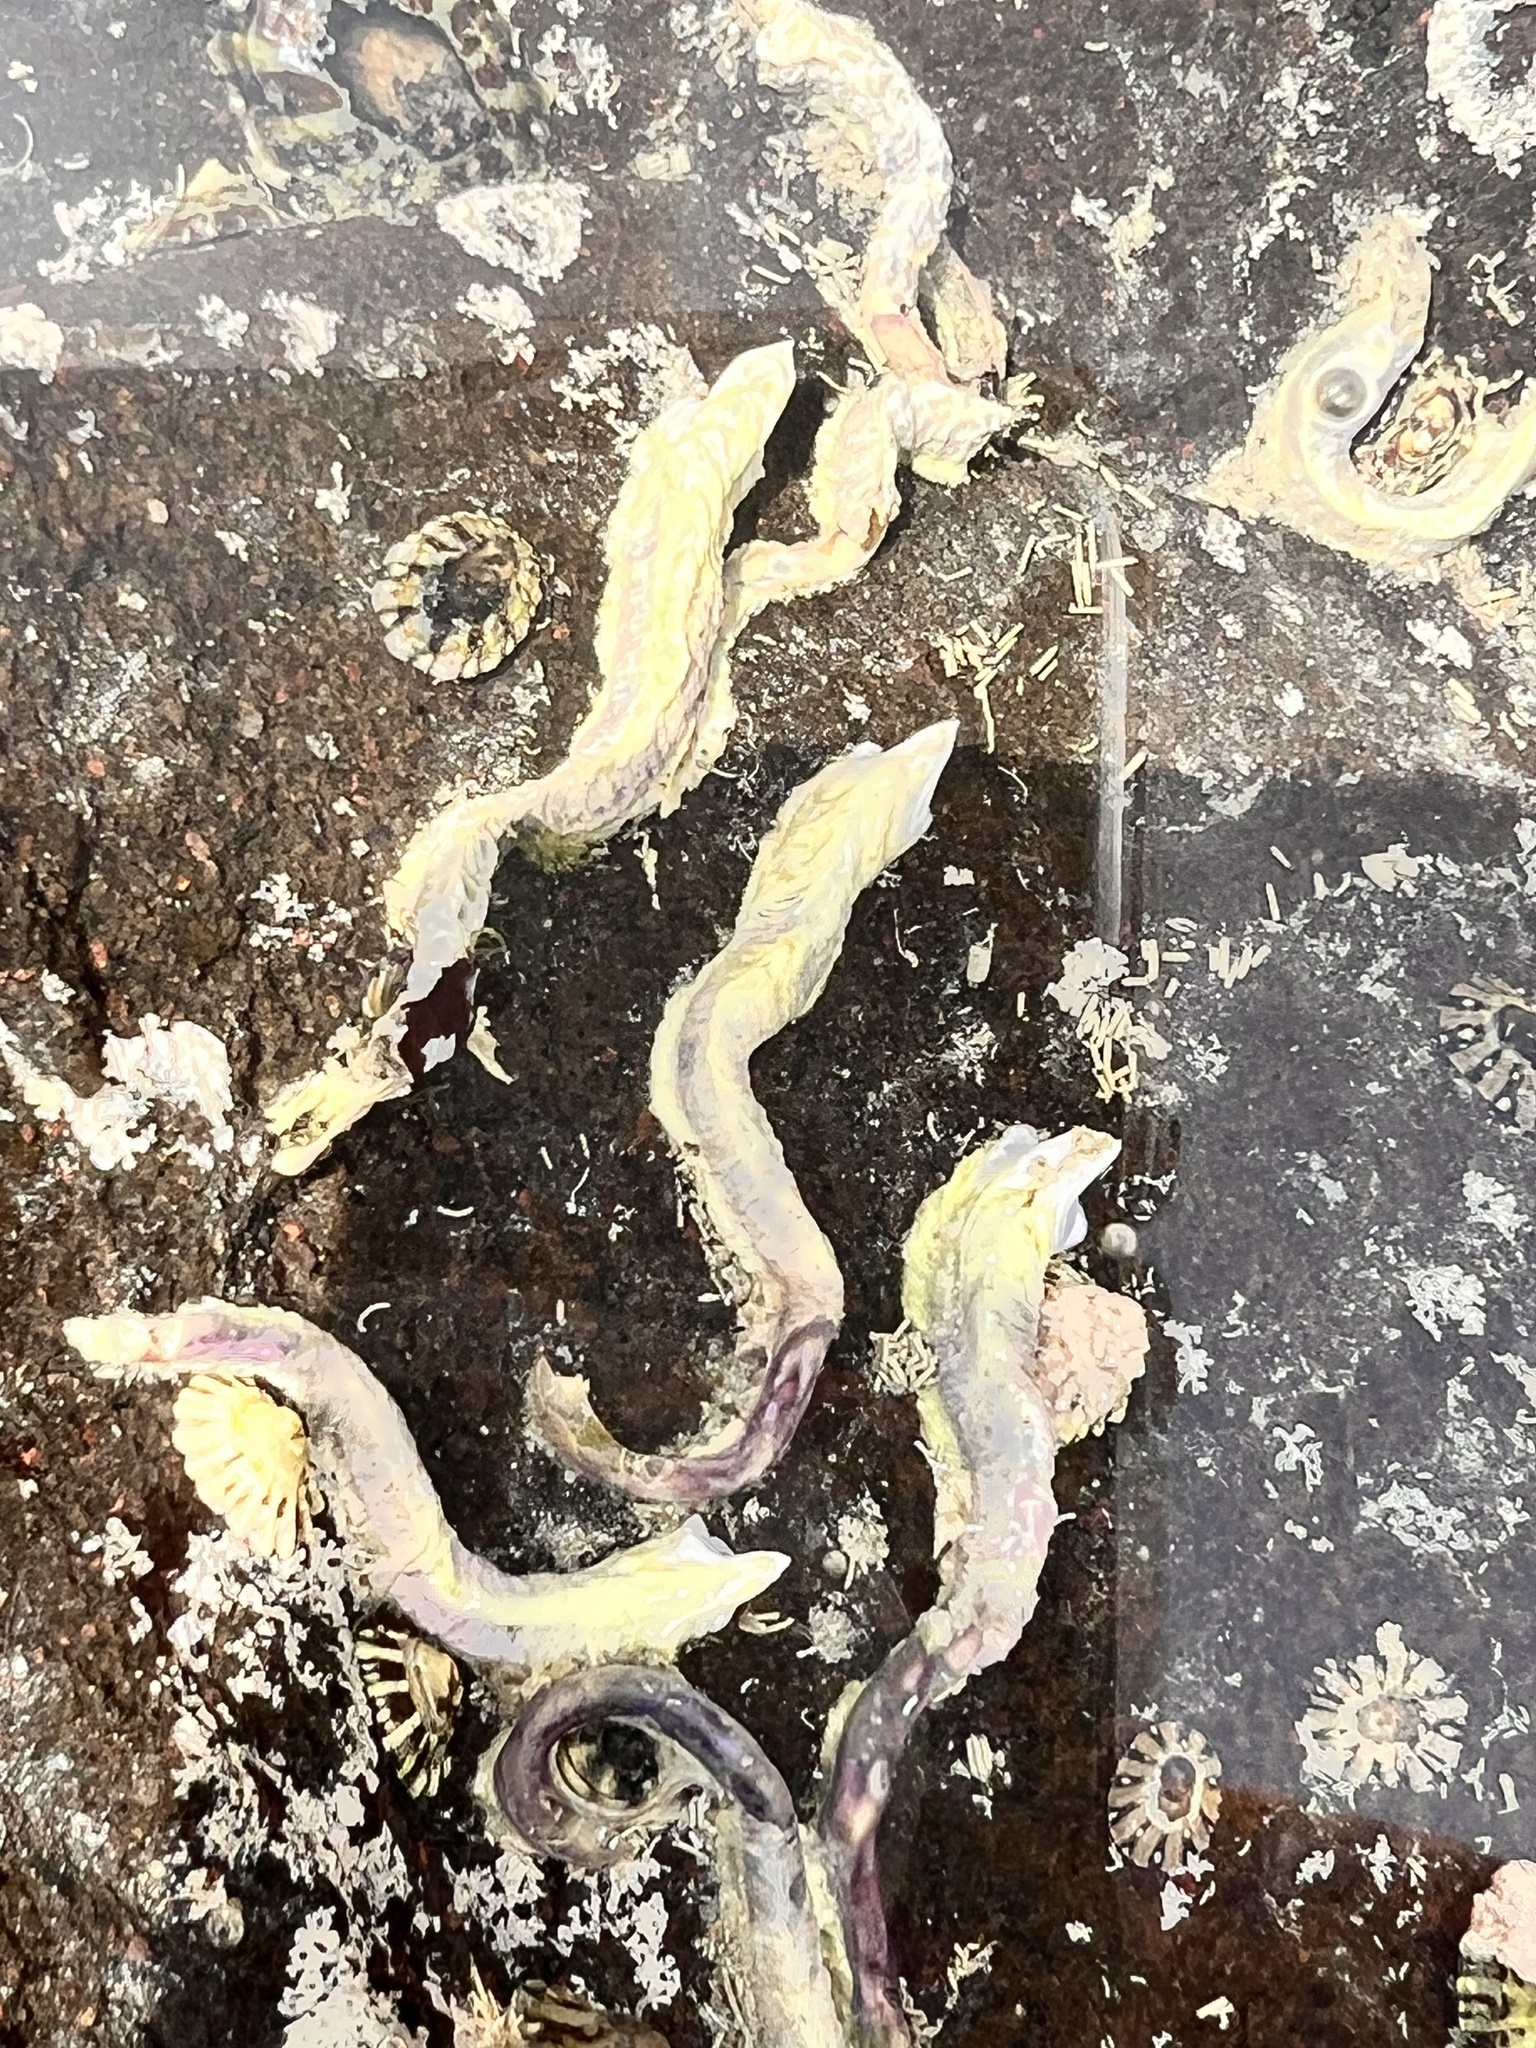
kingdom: Animalia
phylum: Annelida
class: Polychaeta
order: Sabellida
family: Serpulidae
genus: Spirobranchus
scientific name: Spirobranchus cariniferus
